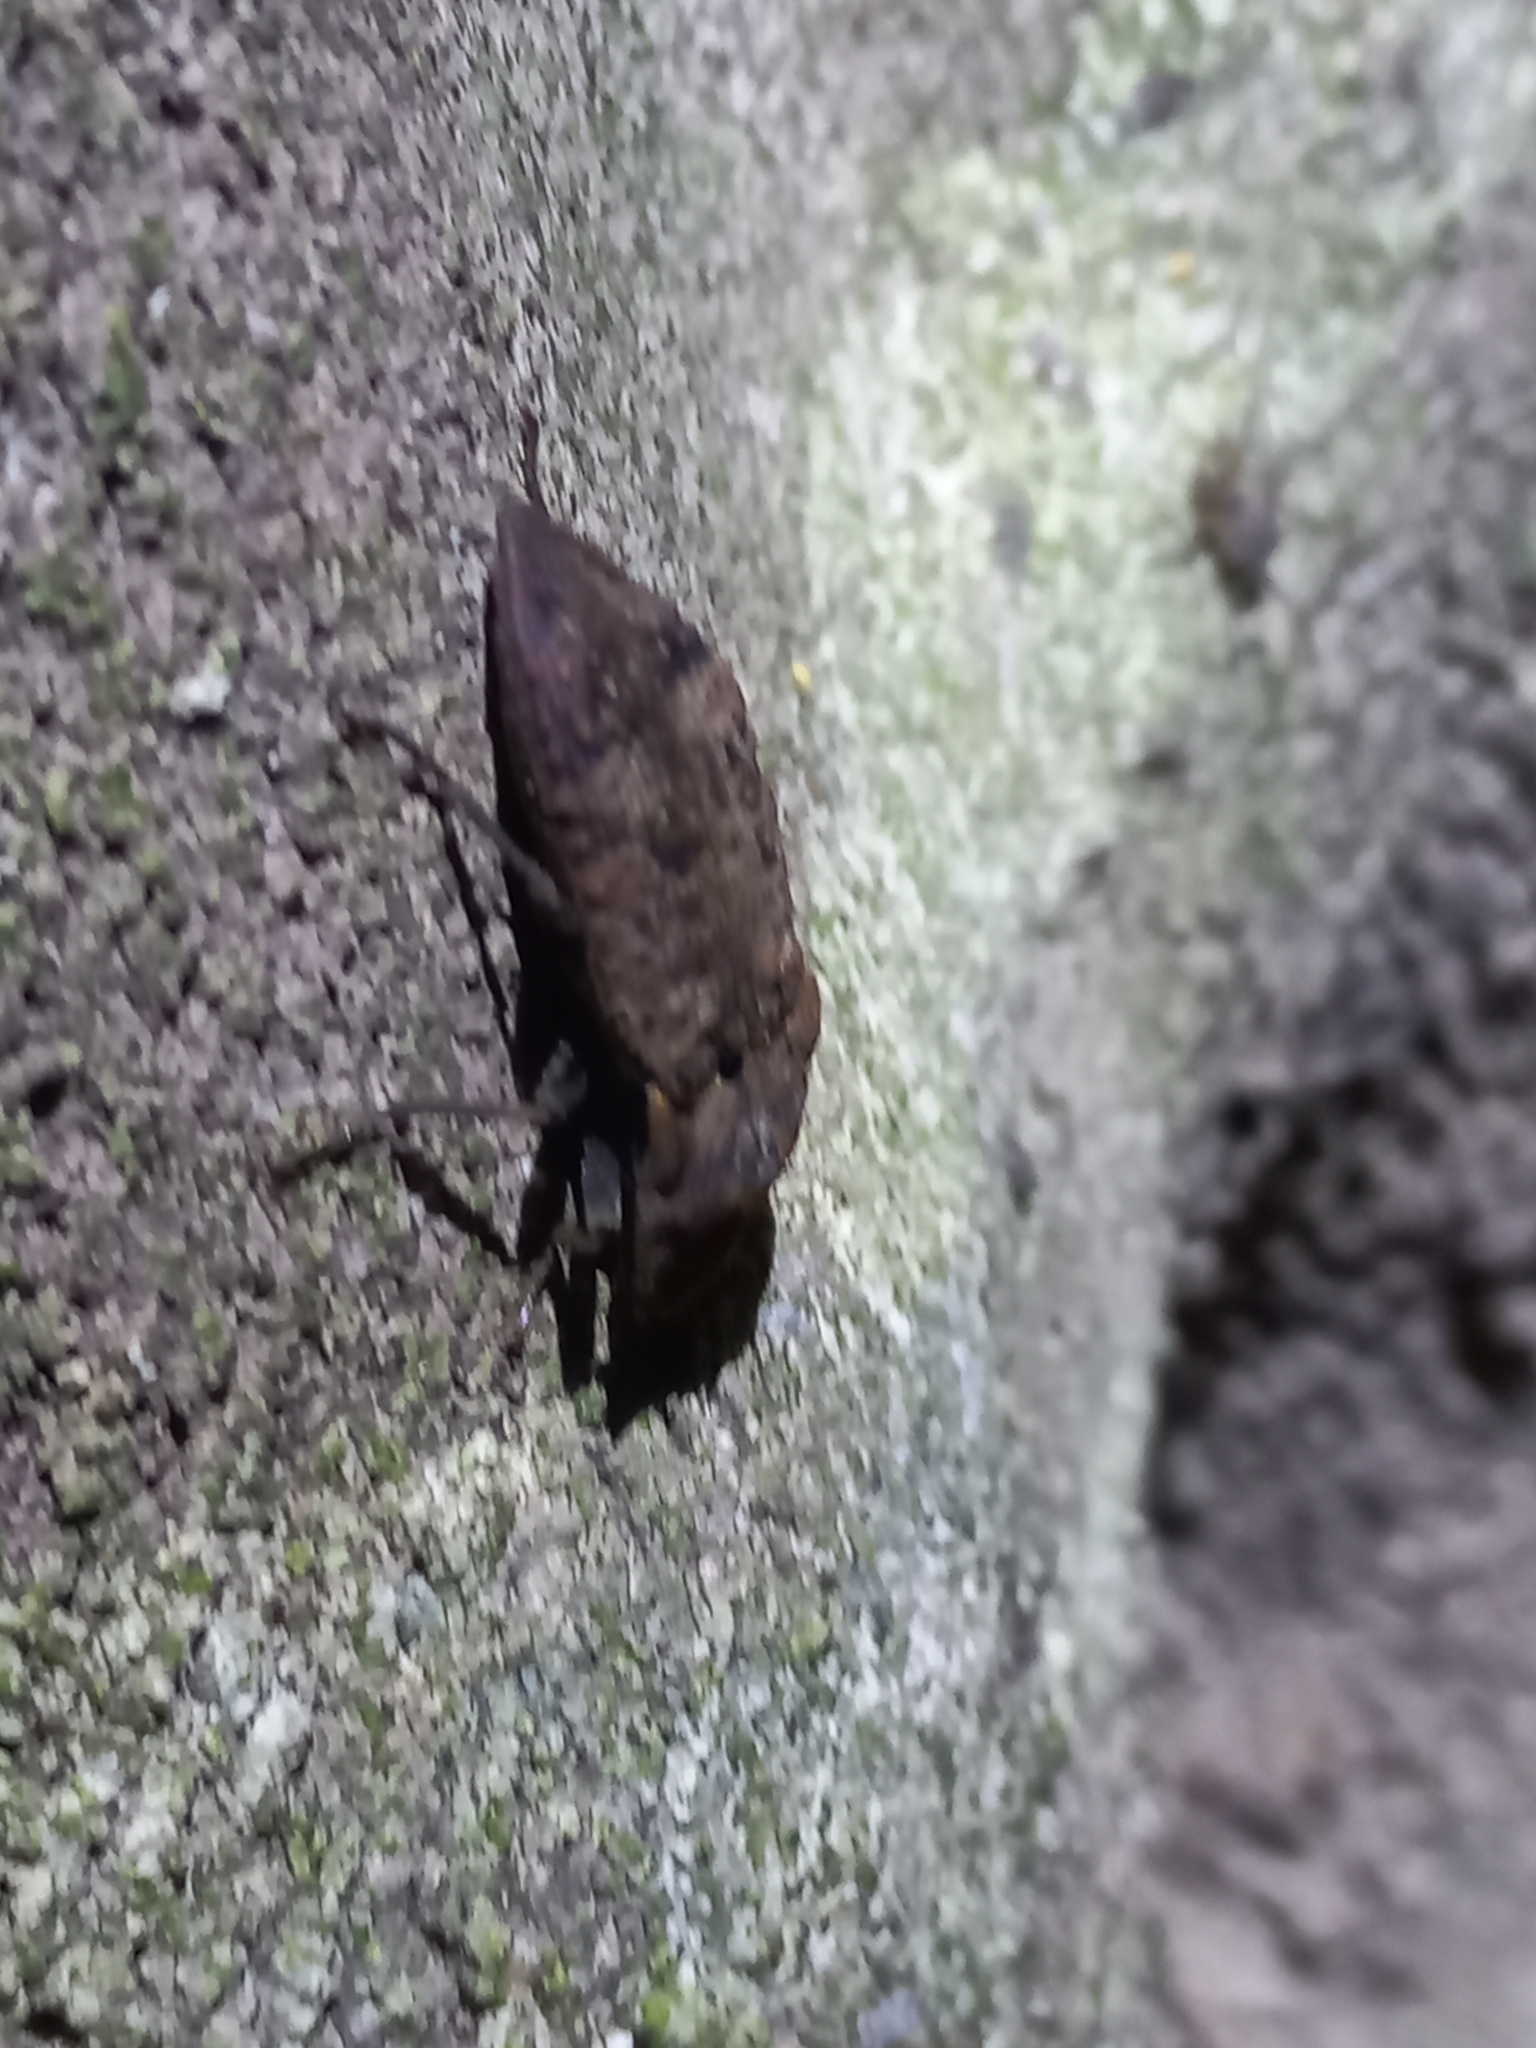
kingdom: Animalia
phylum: Arthropoda
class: Insecta
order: Coleoptera
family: Elateridae
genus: Amychus
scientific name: Amychus
